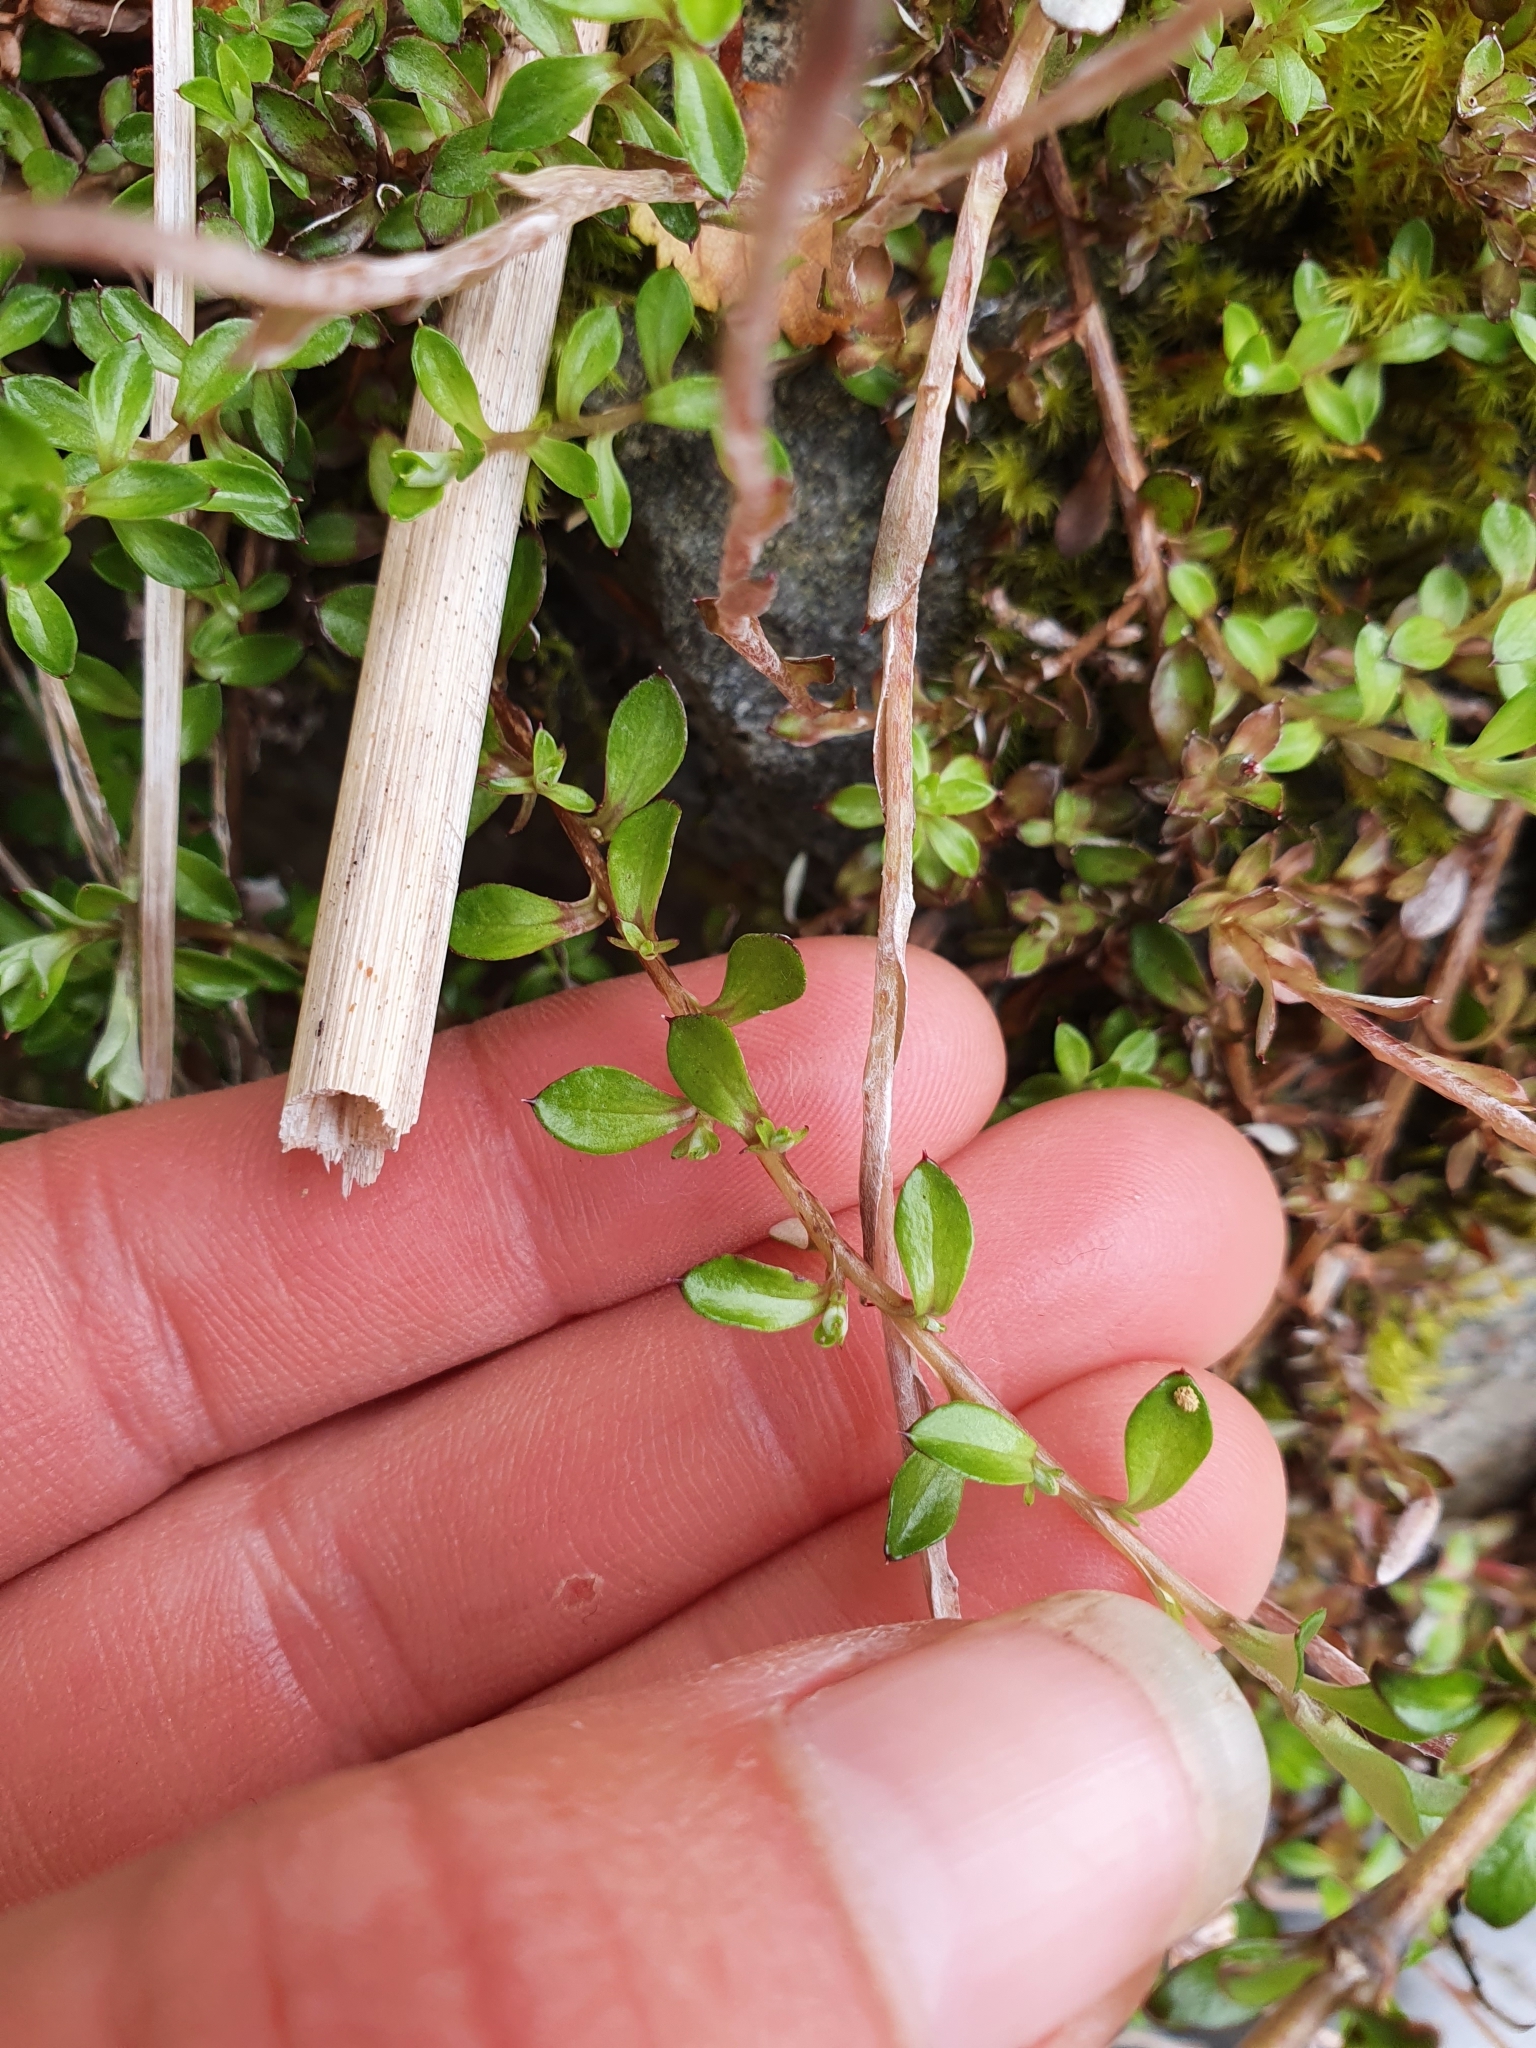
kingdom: Plantae
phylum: Tracheophyta
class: Magnoliopsida
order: Asterales
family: Asteraceae
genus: Anaphalioides
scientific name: Anaphalioides bellidioides
